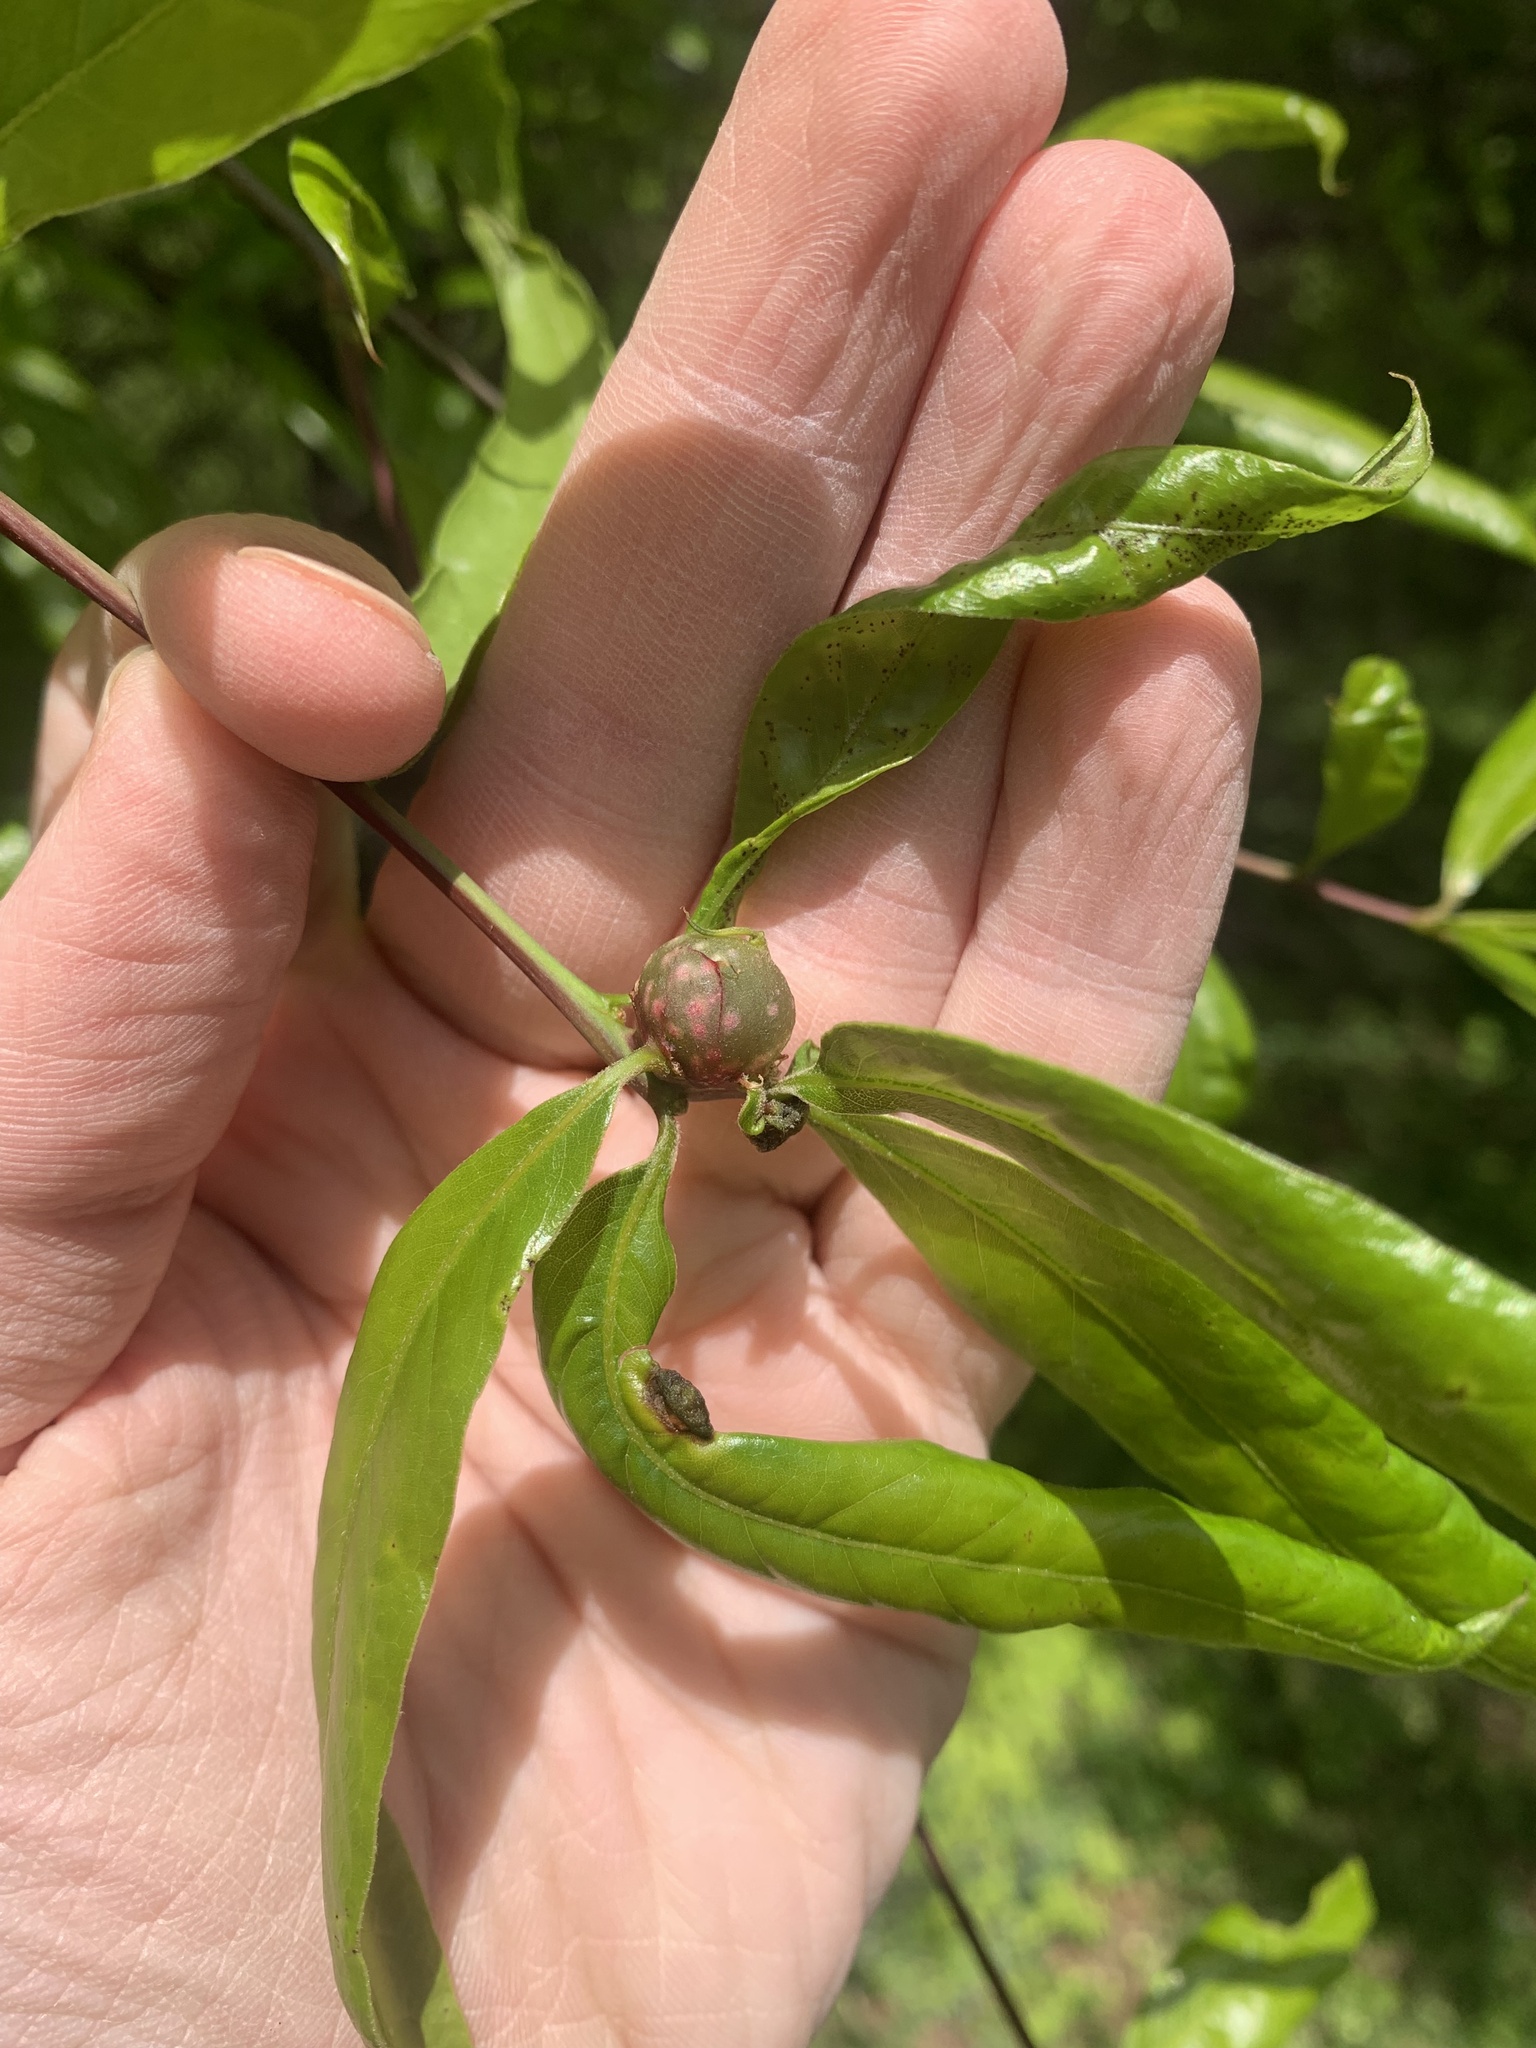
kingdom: Animalia
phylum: Arthropoda
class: Insecta
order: Hymenoptera
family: Cynipidae
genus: Dryocosmus
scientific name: Dryocosmus
